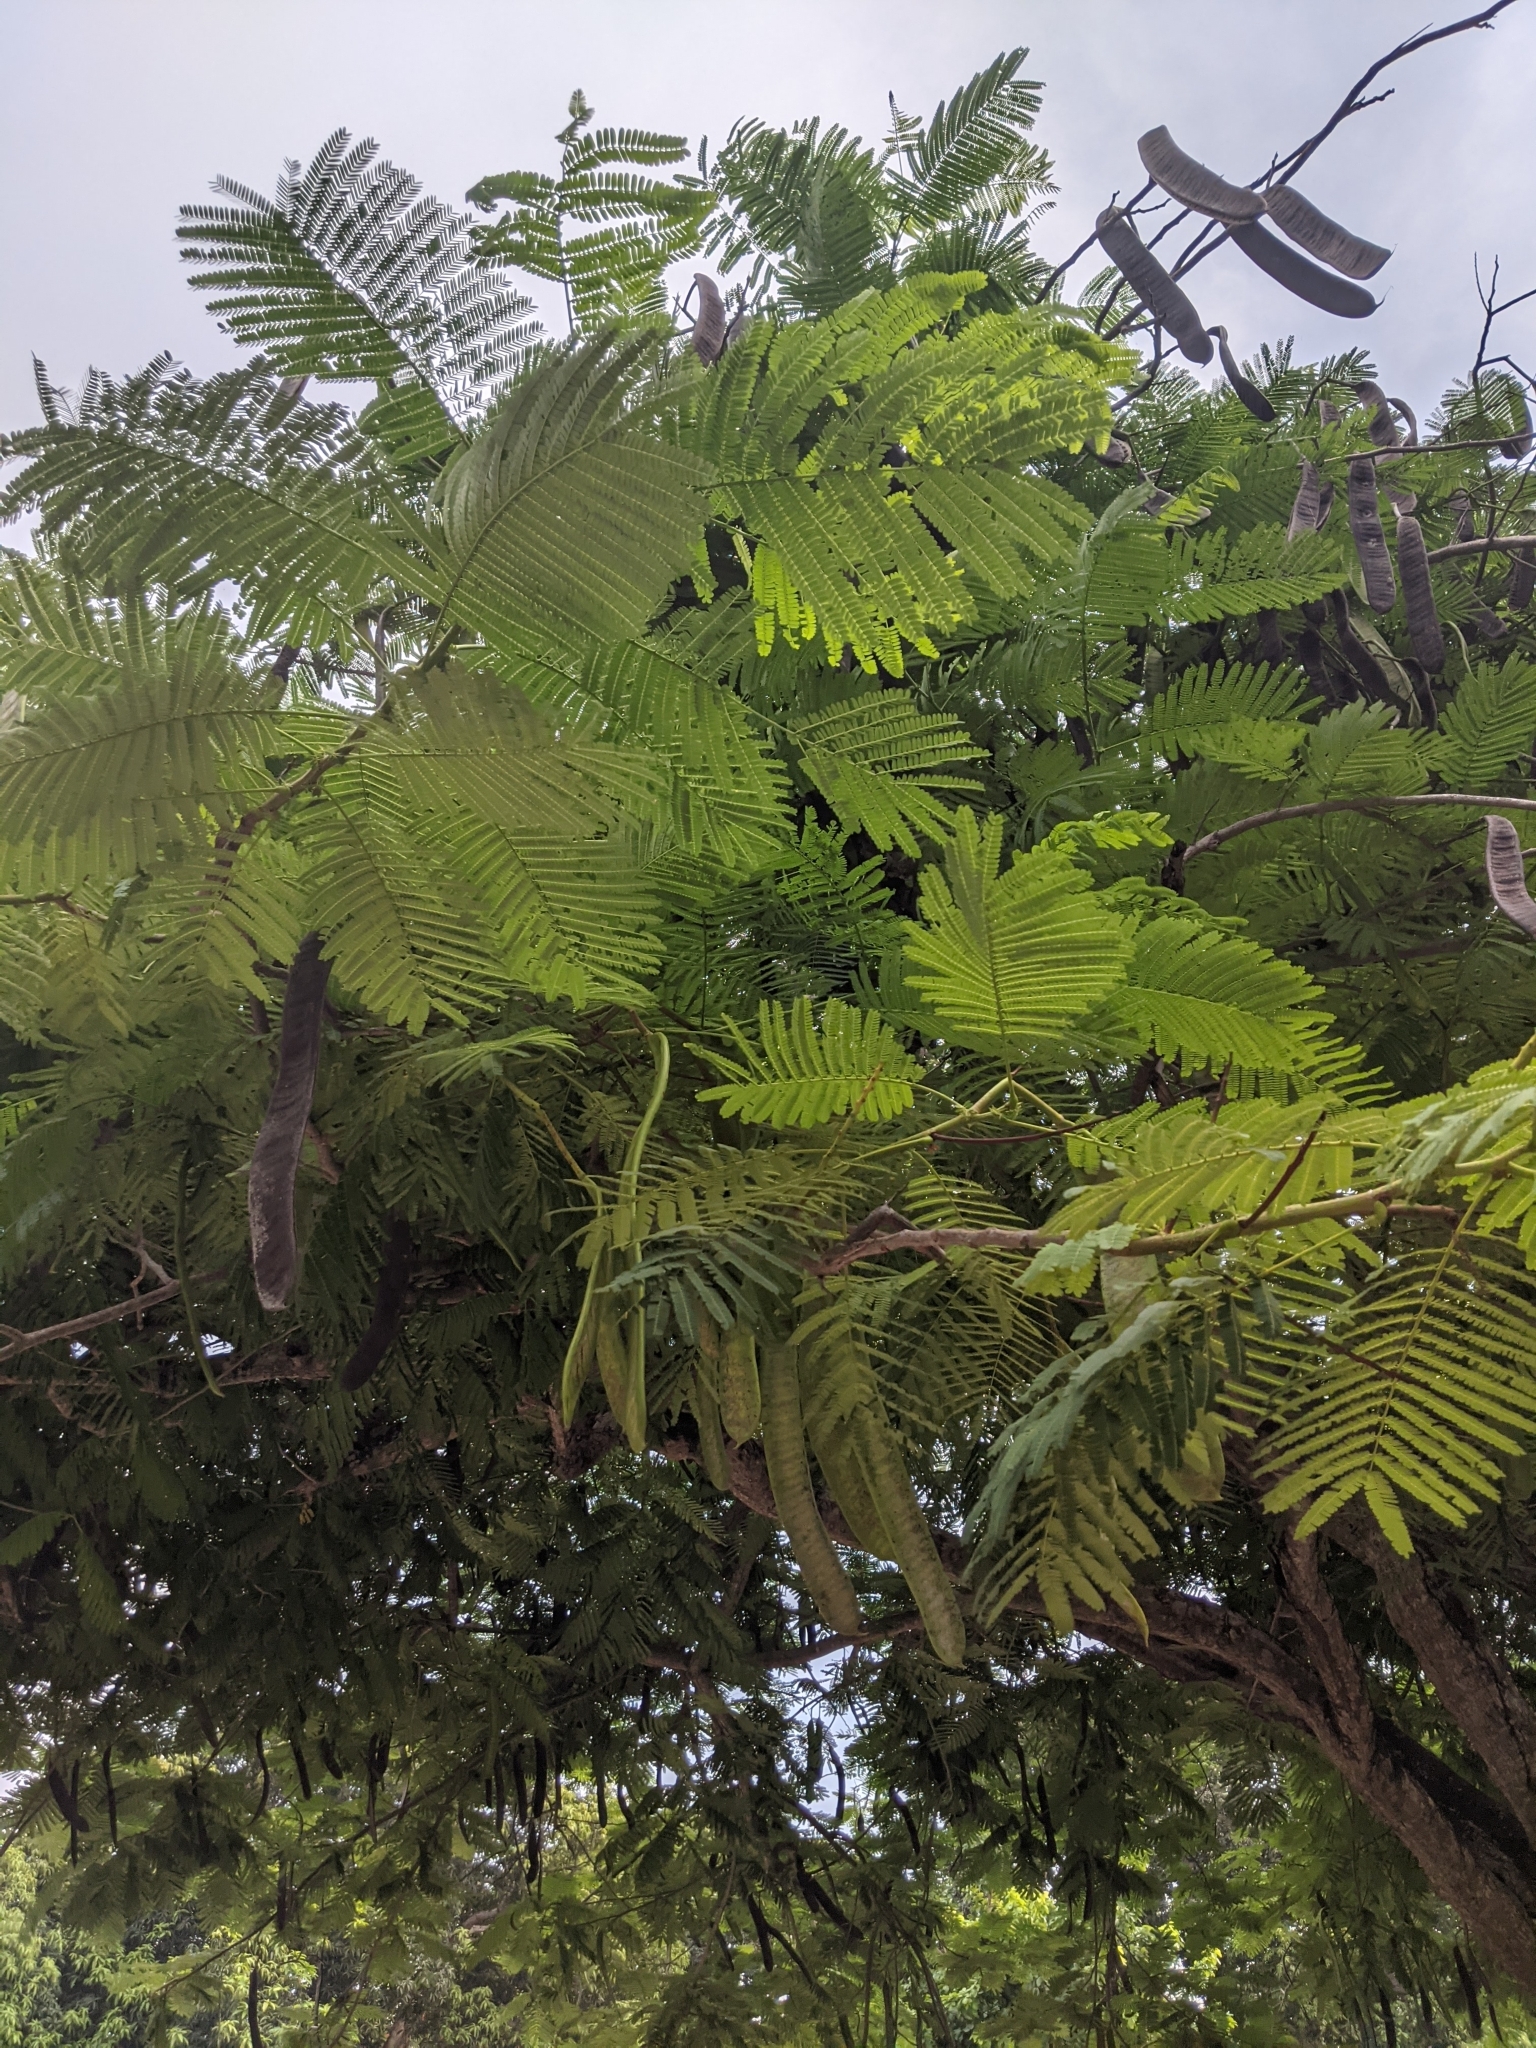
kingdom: Plantae
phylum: Tracheophyta
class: Magnoliopsida
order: Fabales
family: Fabaceae
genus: Delonix
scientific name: Delonix regia
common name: Royal poinciana
